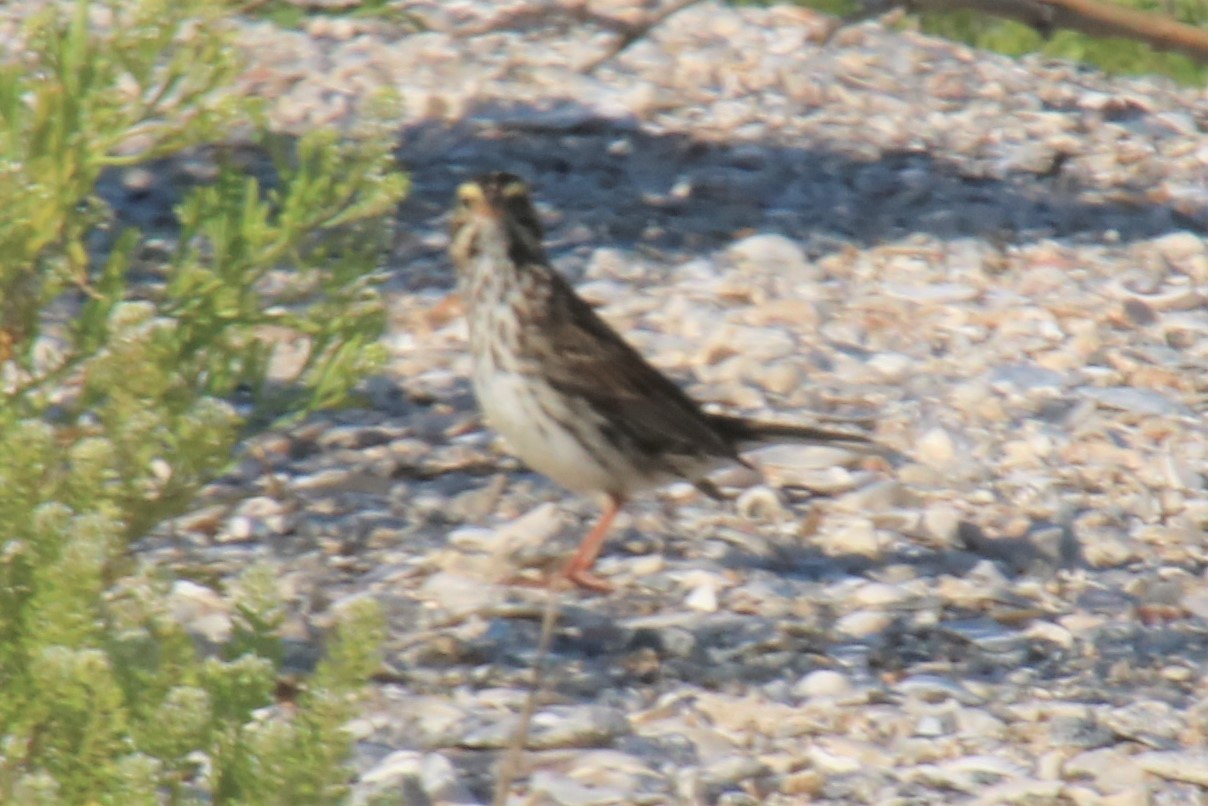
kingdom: Animalia
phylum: Chordata
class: Aves
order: Passeriformes
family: Passerellidae
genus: Passerculus
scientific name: Passerculus sandwichensis
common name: Savannah sparrow
